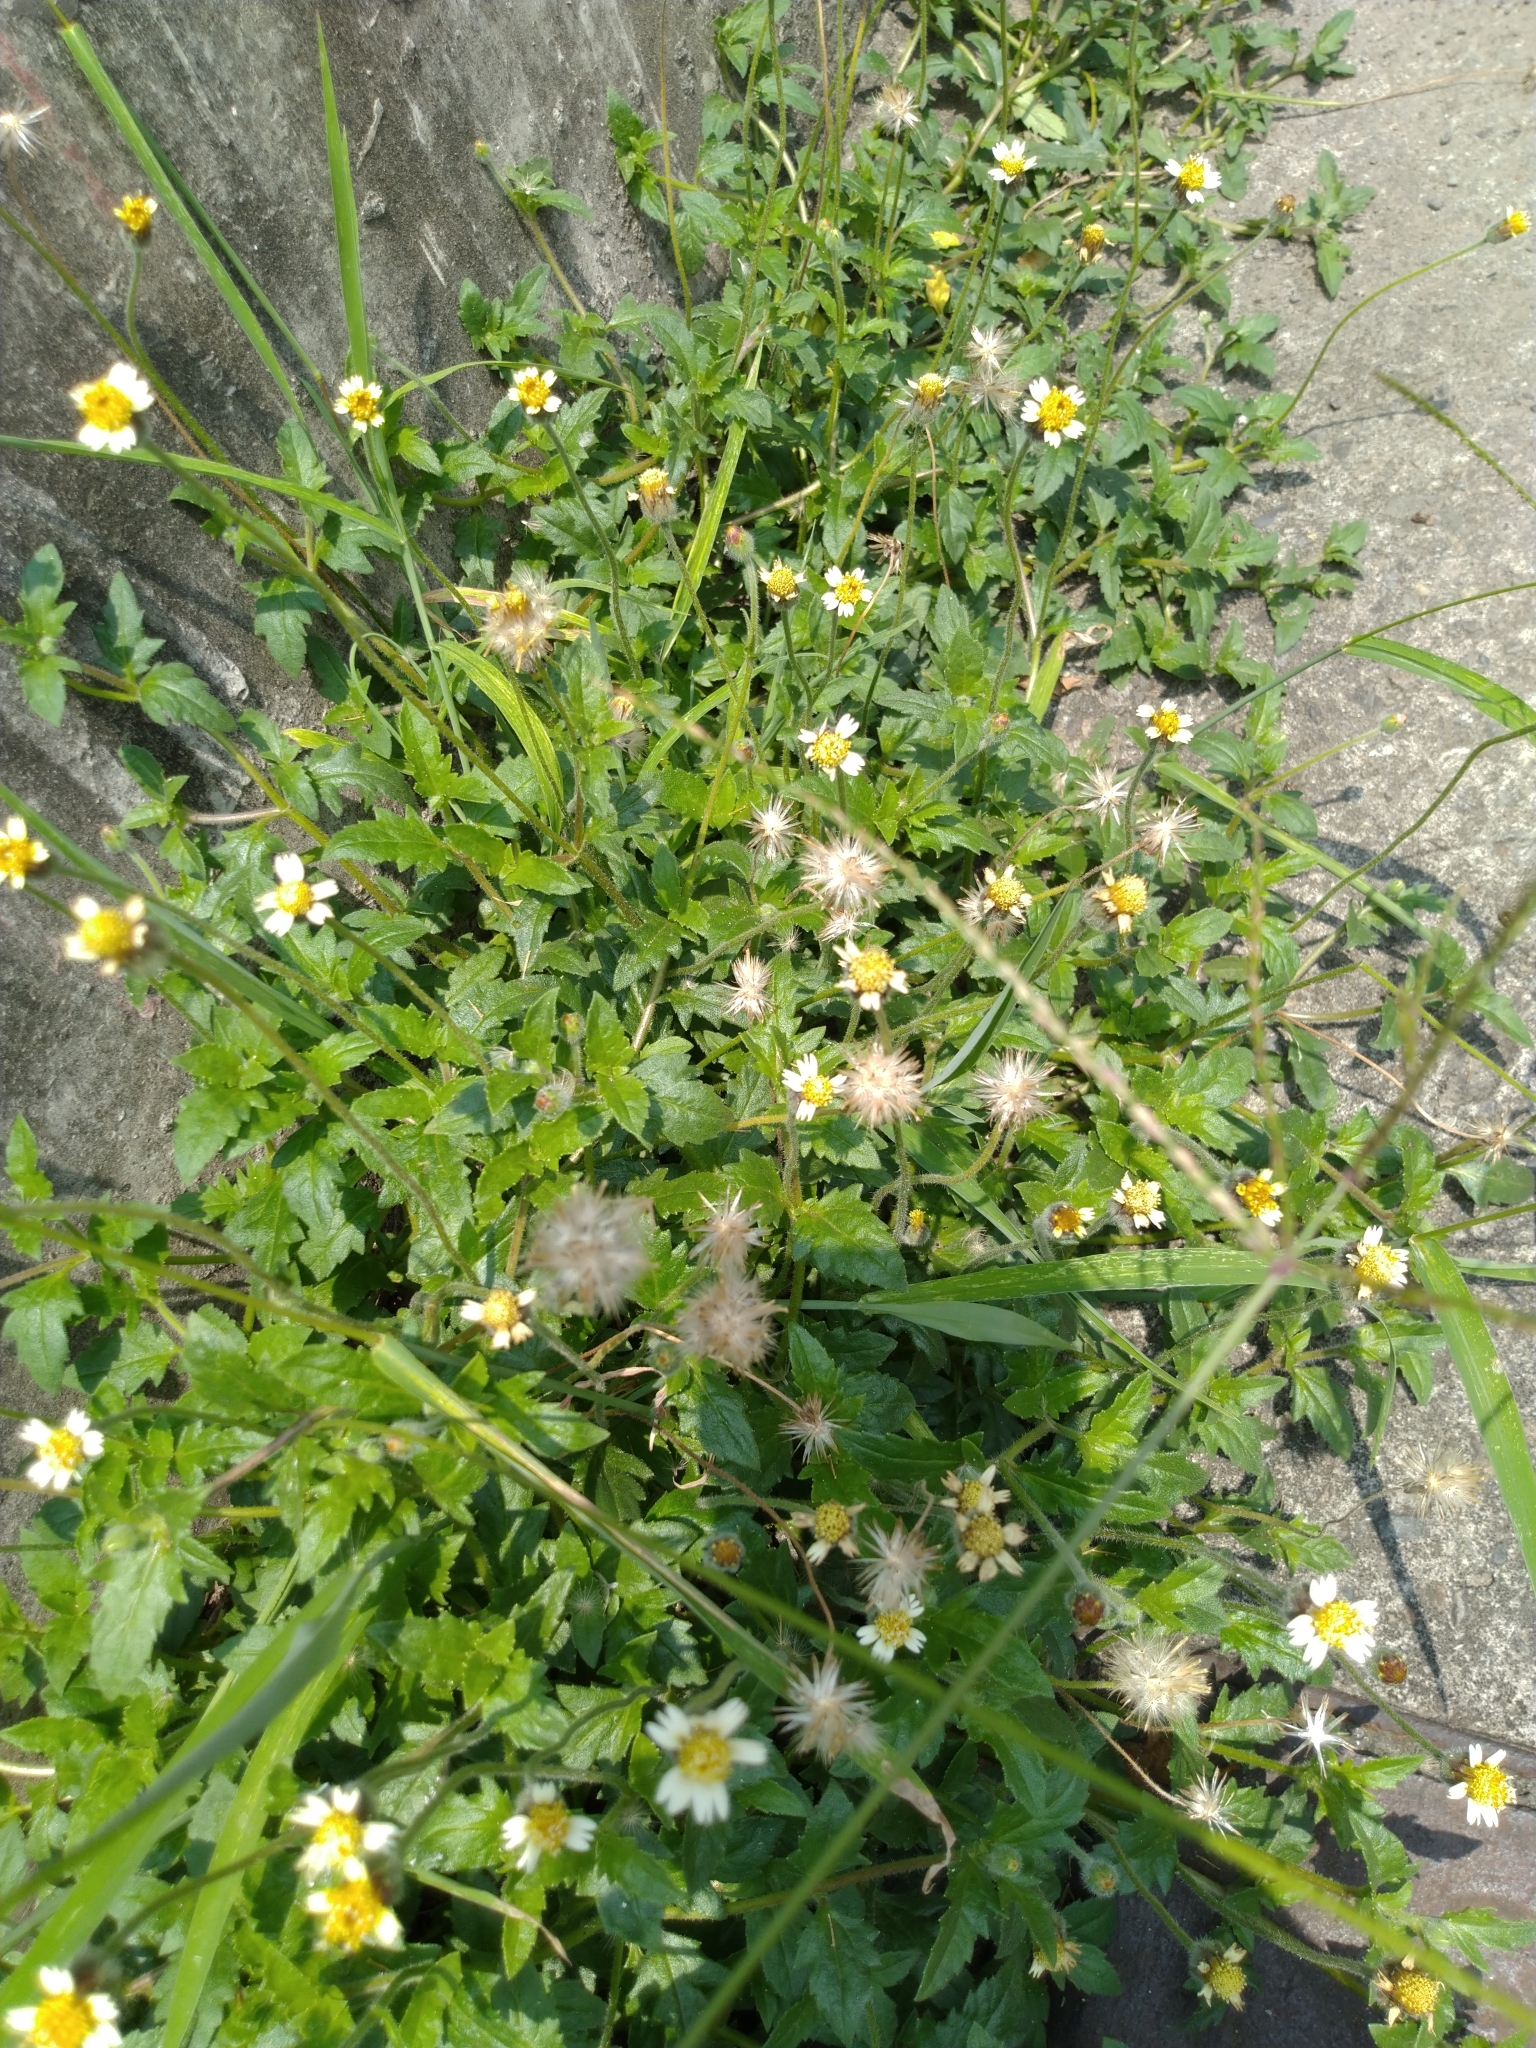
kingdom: Plantae
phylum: Tracheophyta
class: Magnoliopsida
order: Asterales
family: Asteraceae
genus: Tridax
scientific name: Tridax procumbens
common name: Coatbuttons
